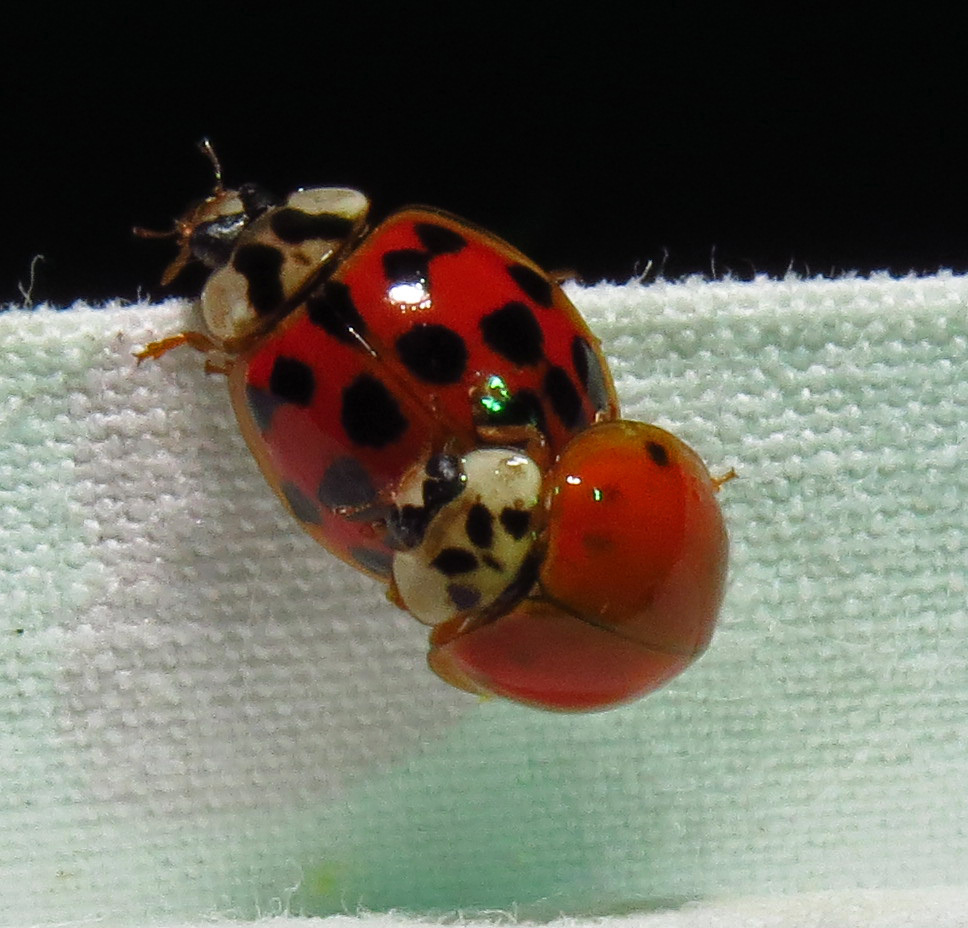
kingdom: Animalia
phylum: Arthropoda
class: Insecta
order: Coleoptera
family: Coccinellidae
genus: Harmonia
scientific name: Harmonia axyridis
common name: Harlequin ladybird
